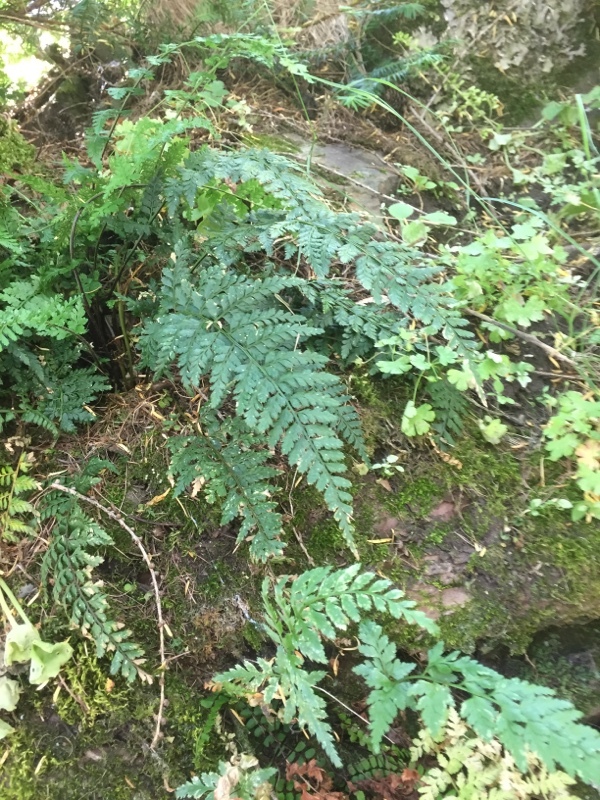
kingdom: Plantae
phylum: Tracheophyta
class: Polypodiopsida
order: Polypodiales
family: Aspleniaceae
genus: Asplenium
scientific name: Asplenium trichomanes
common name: Maidenhair spleenwort
